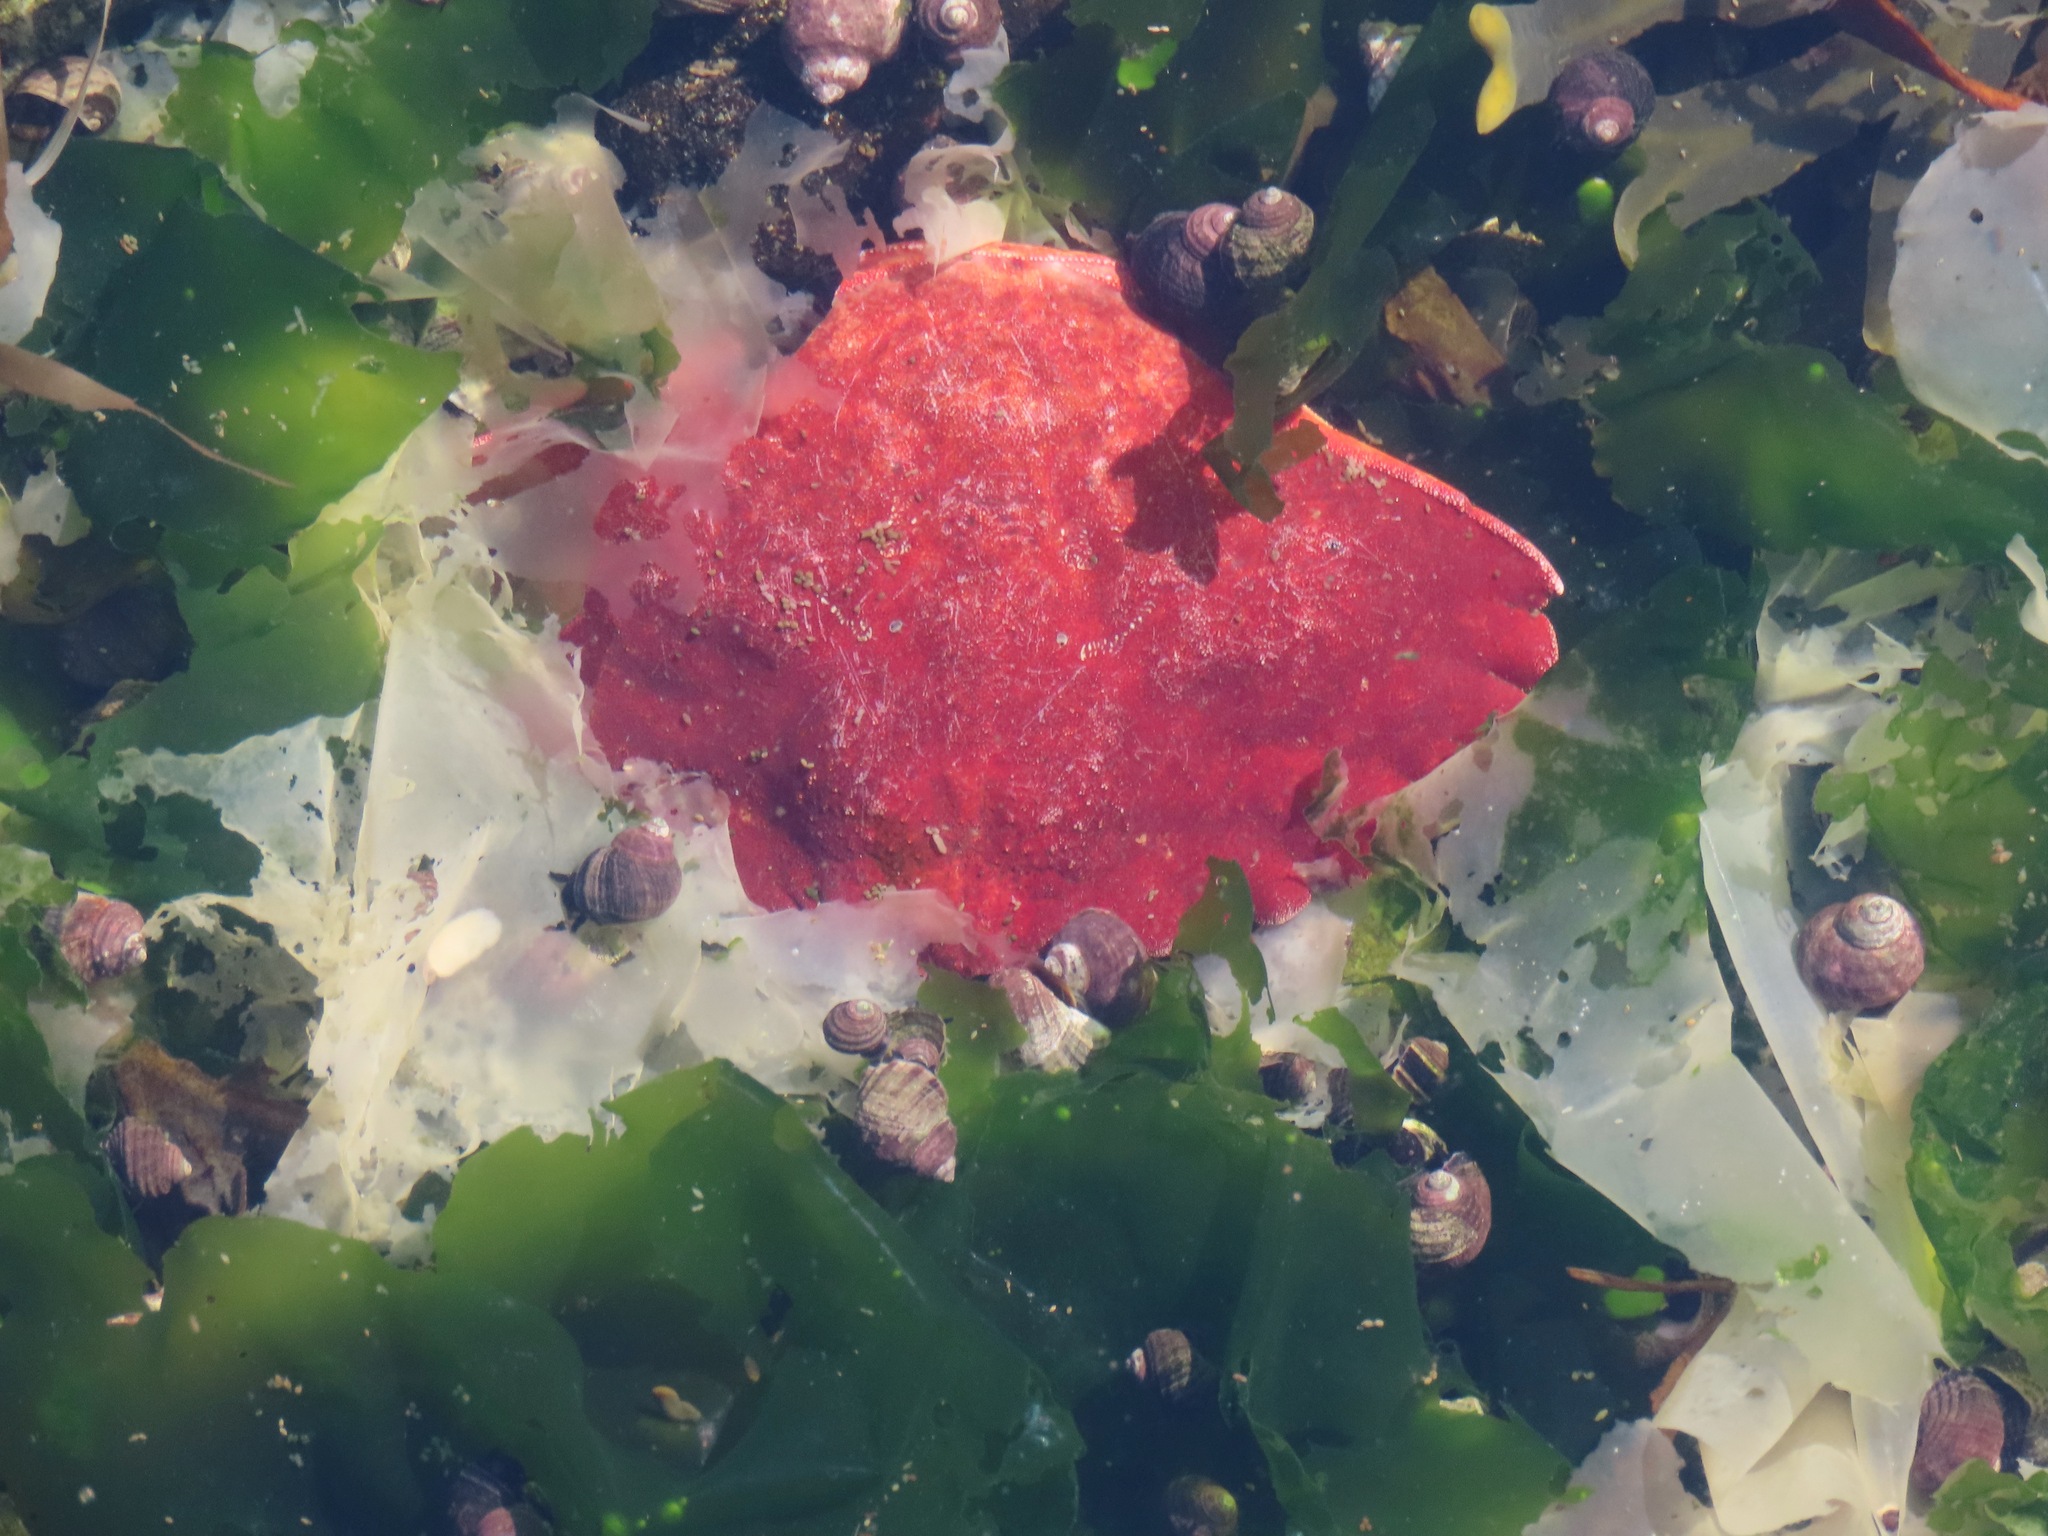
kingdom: Animalia
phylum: Arthropoda
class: Malacostraca
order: Decapoda
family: Cancridae
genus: Cancer
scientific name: Cancer productus
